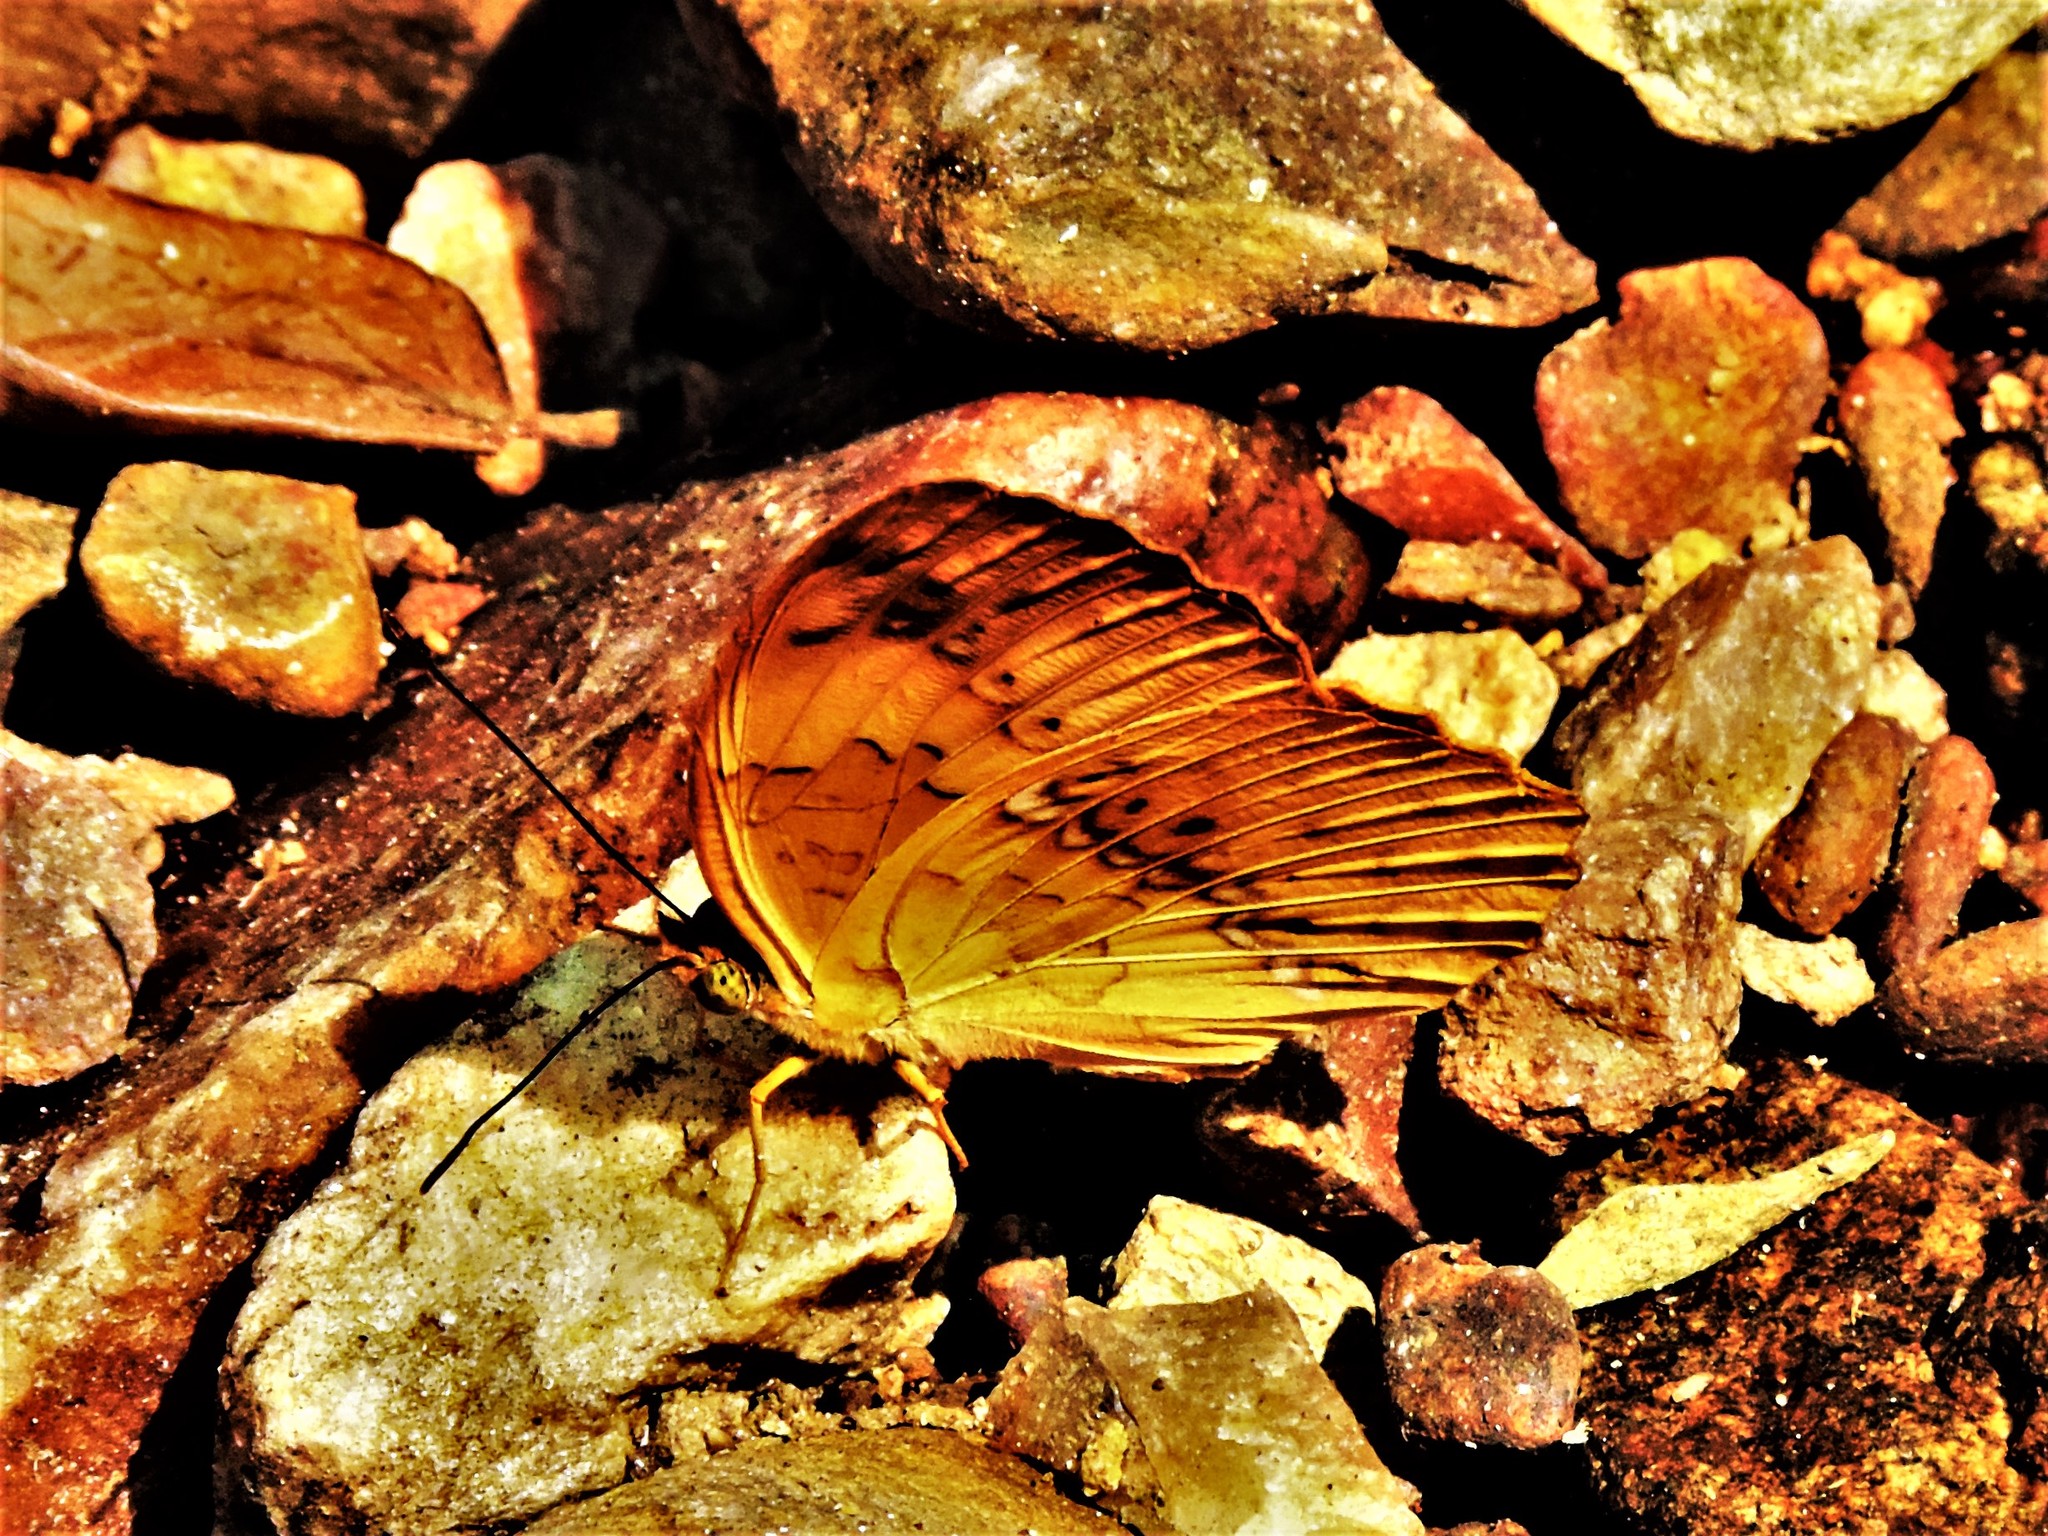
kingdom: Animalia
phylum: Arthropoda
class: Insecta
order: Lepidoptera
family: Nymphalidae
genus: Cupha
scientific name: Cupha erymanthis
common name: Rustic
